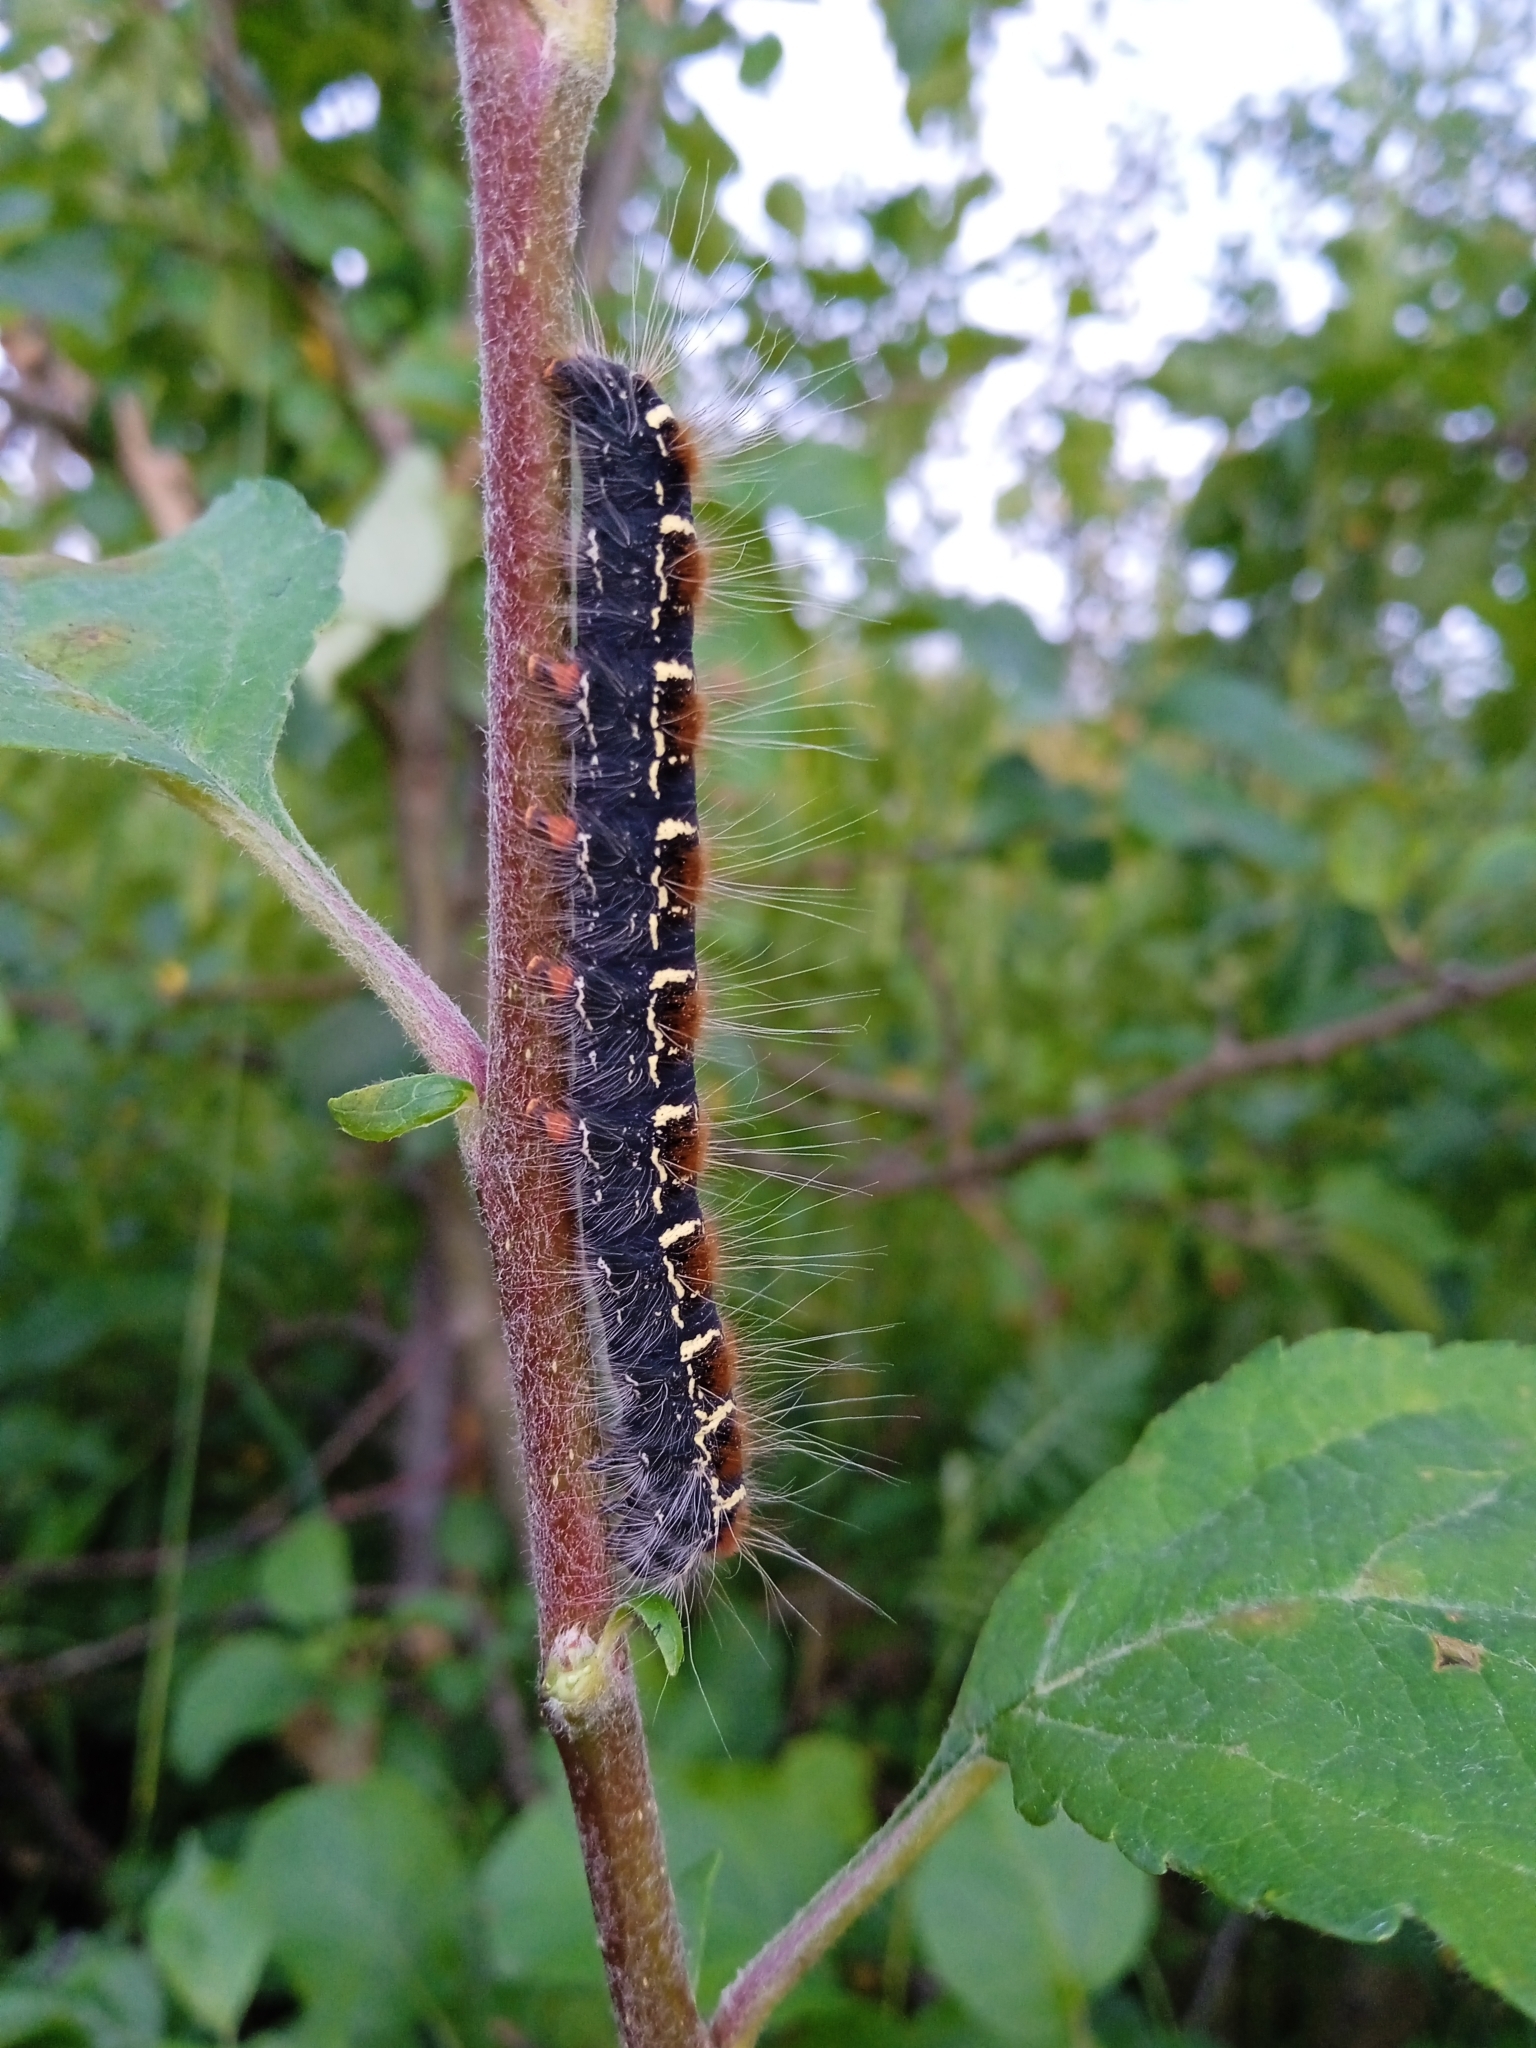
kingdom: Animalia
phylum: Arthropoda
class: Insecta
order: Lepidoptera
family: Lasiocampidae
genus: Eriogaster
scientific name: Eriogaster lanestris
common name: Small eggar
